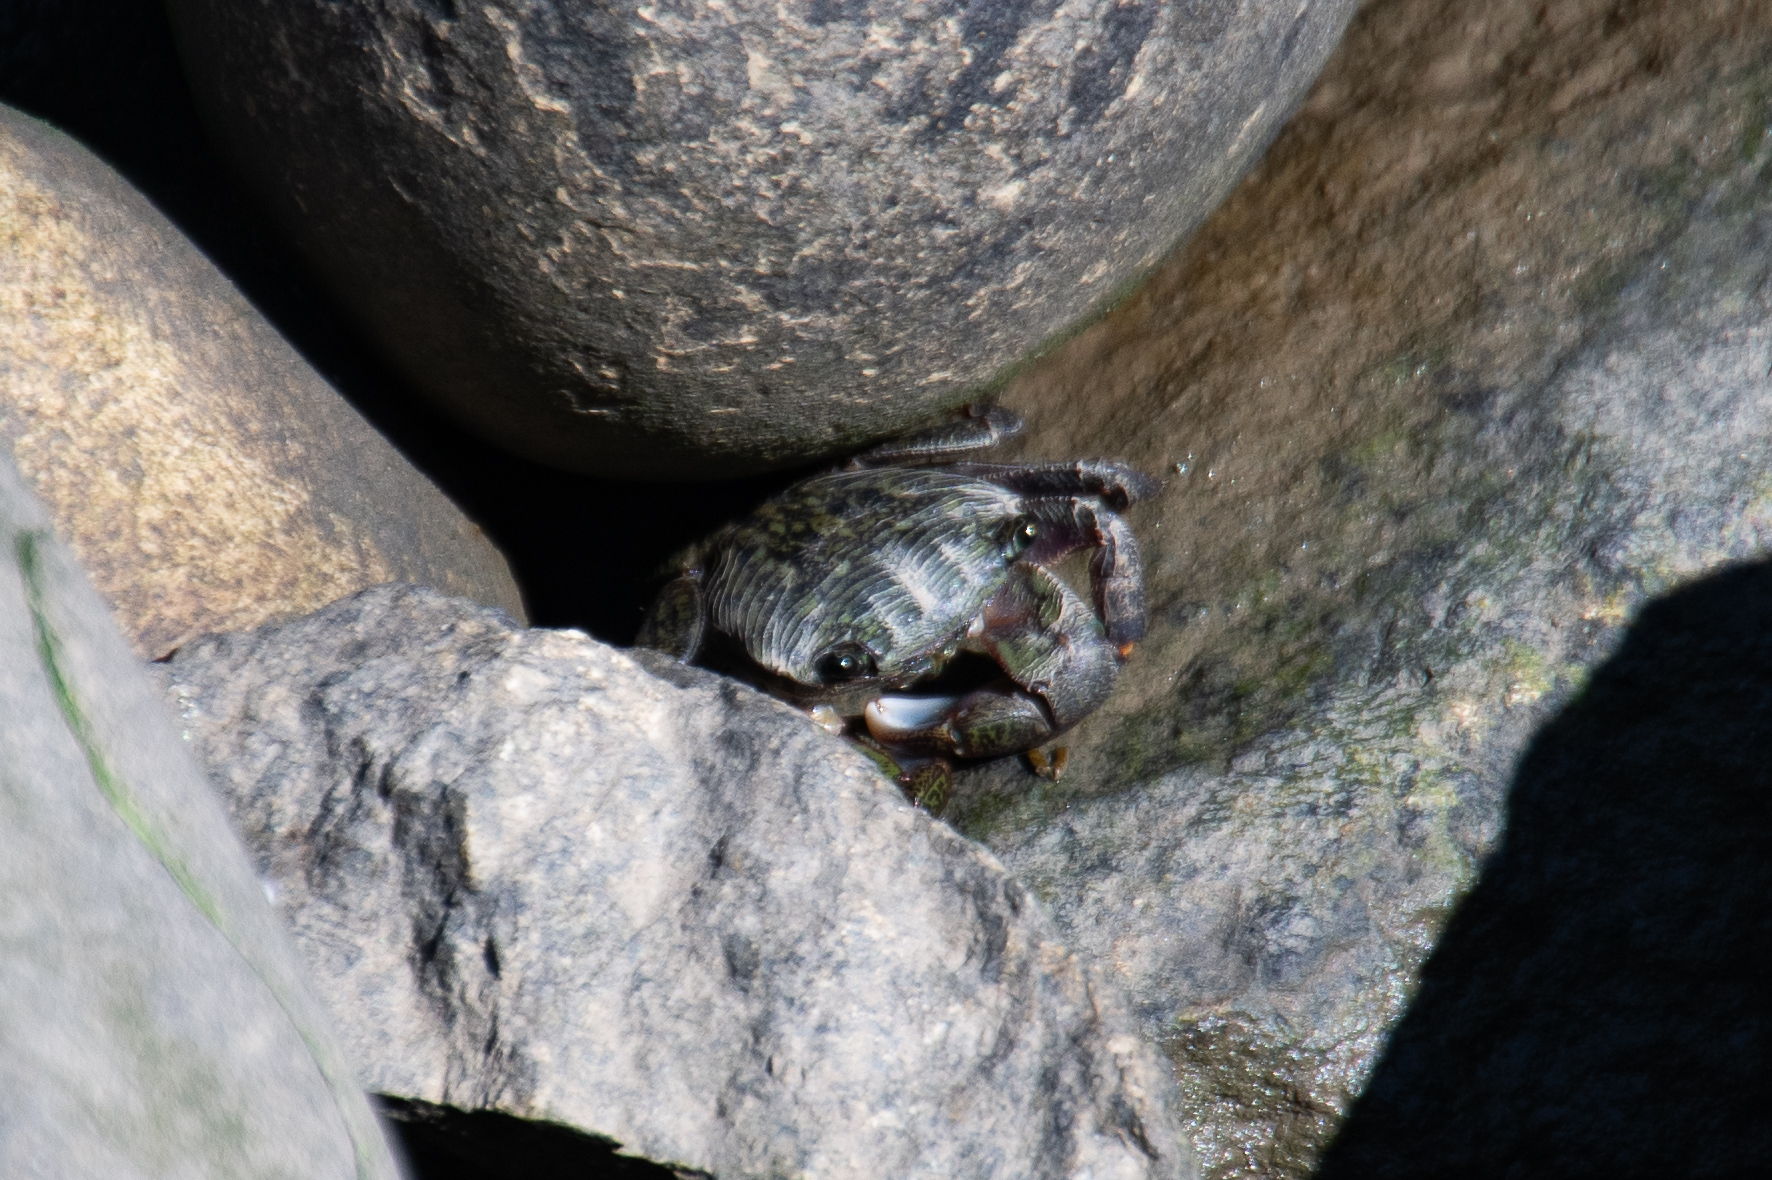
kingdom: Animalia
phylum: Arthropoda
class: Malacostraca
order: Decapoda
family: Grapsidae
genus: Pachygrapsus
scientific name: Pachygrapsus crassipes
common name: Striped shore crab
